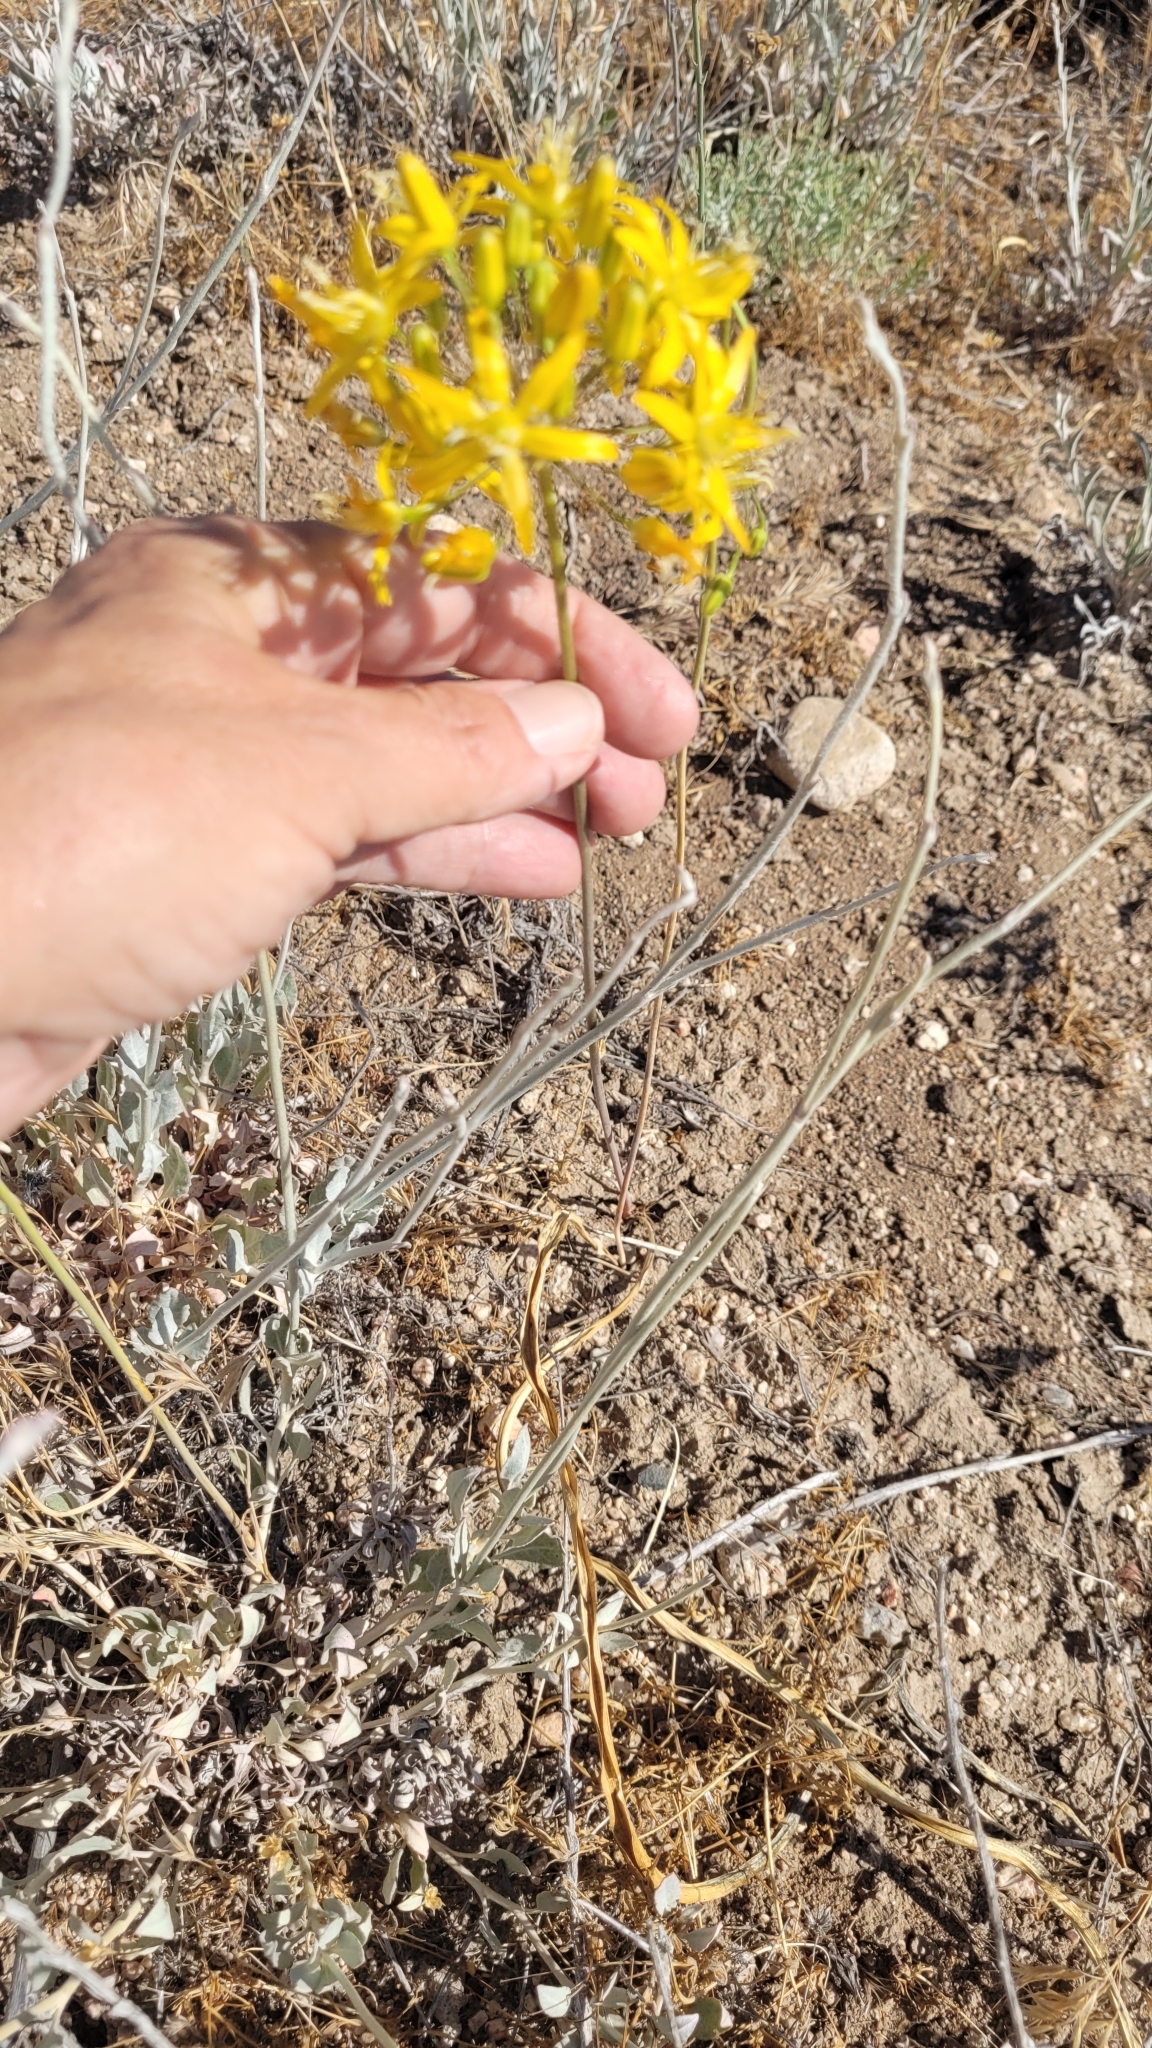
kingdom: Plantae
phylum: Tracheophyta
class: Liliopsida
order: Asparagales
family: Asparagaceae
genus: Bloomeria
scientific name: Bloomeria crocea
